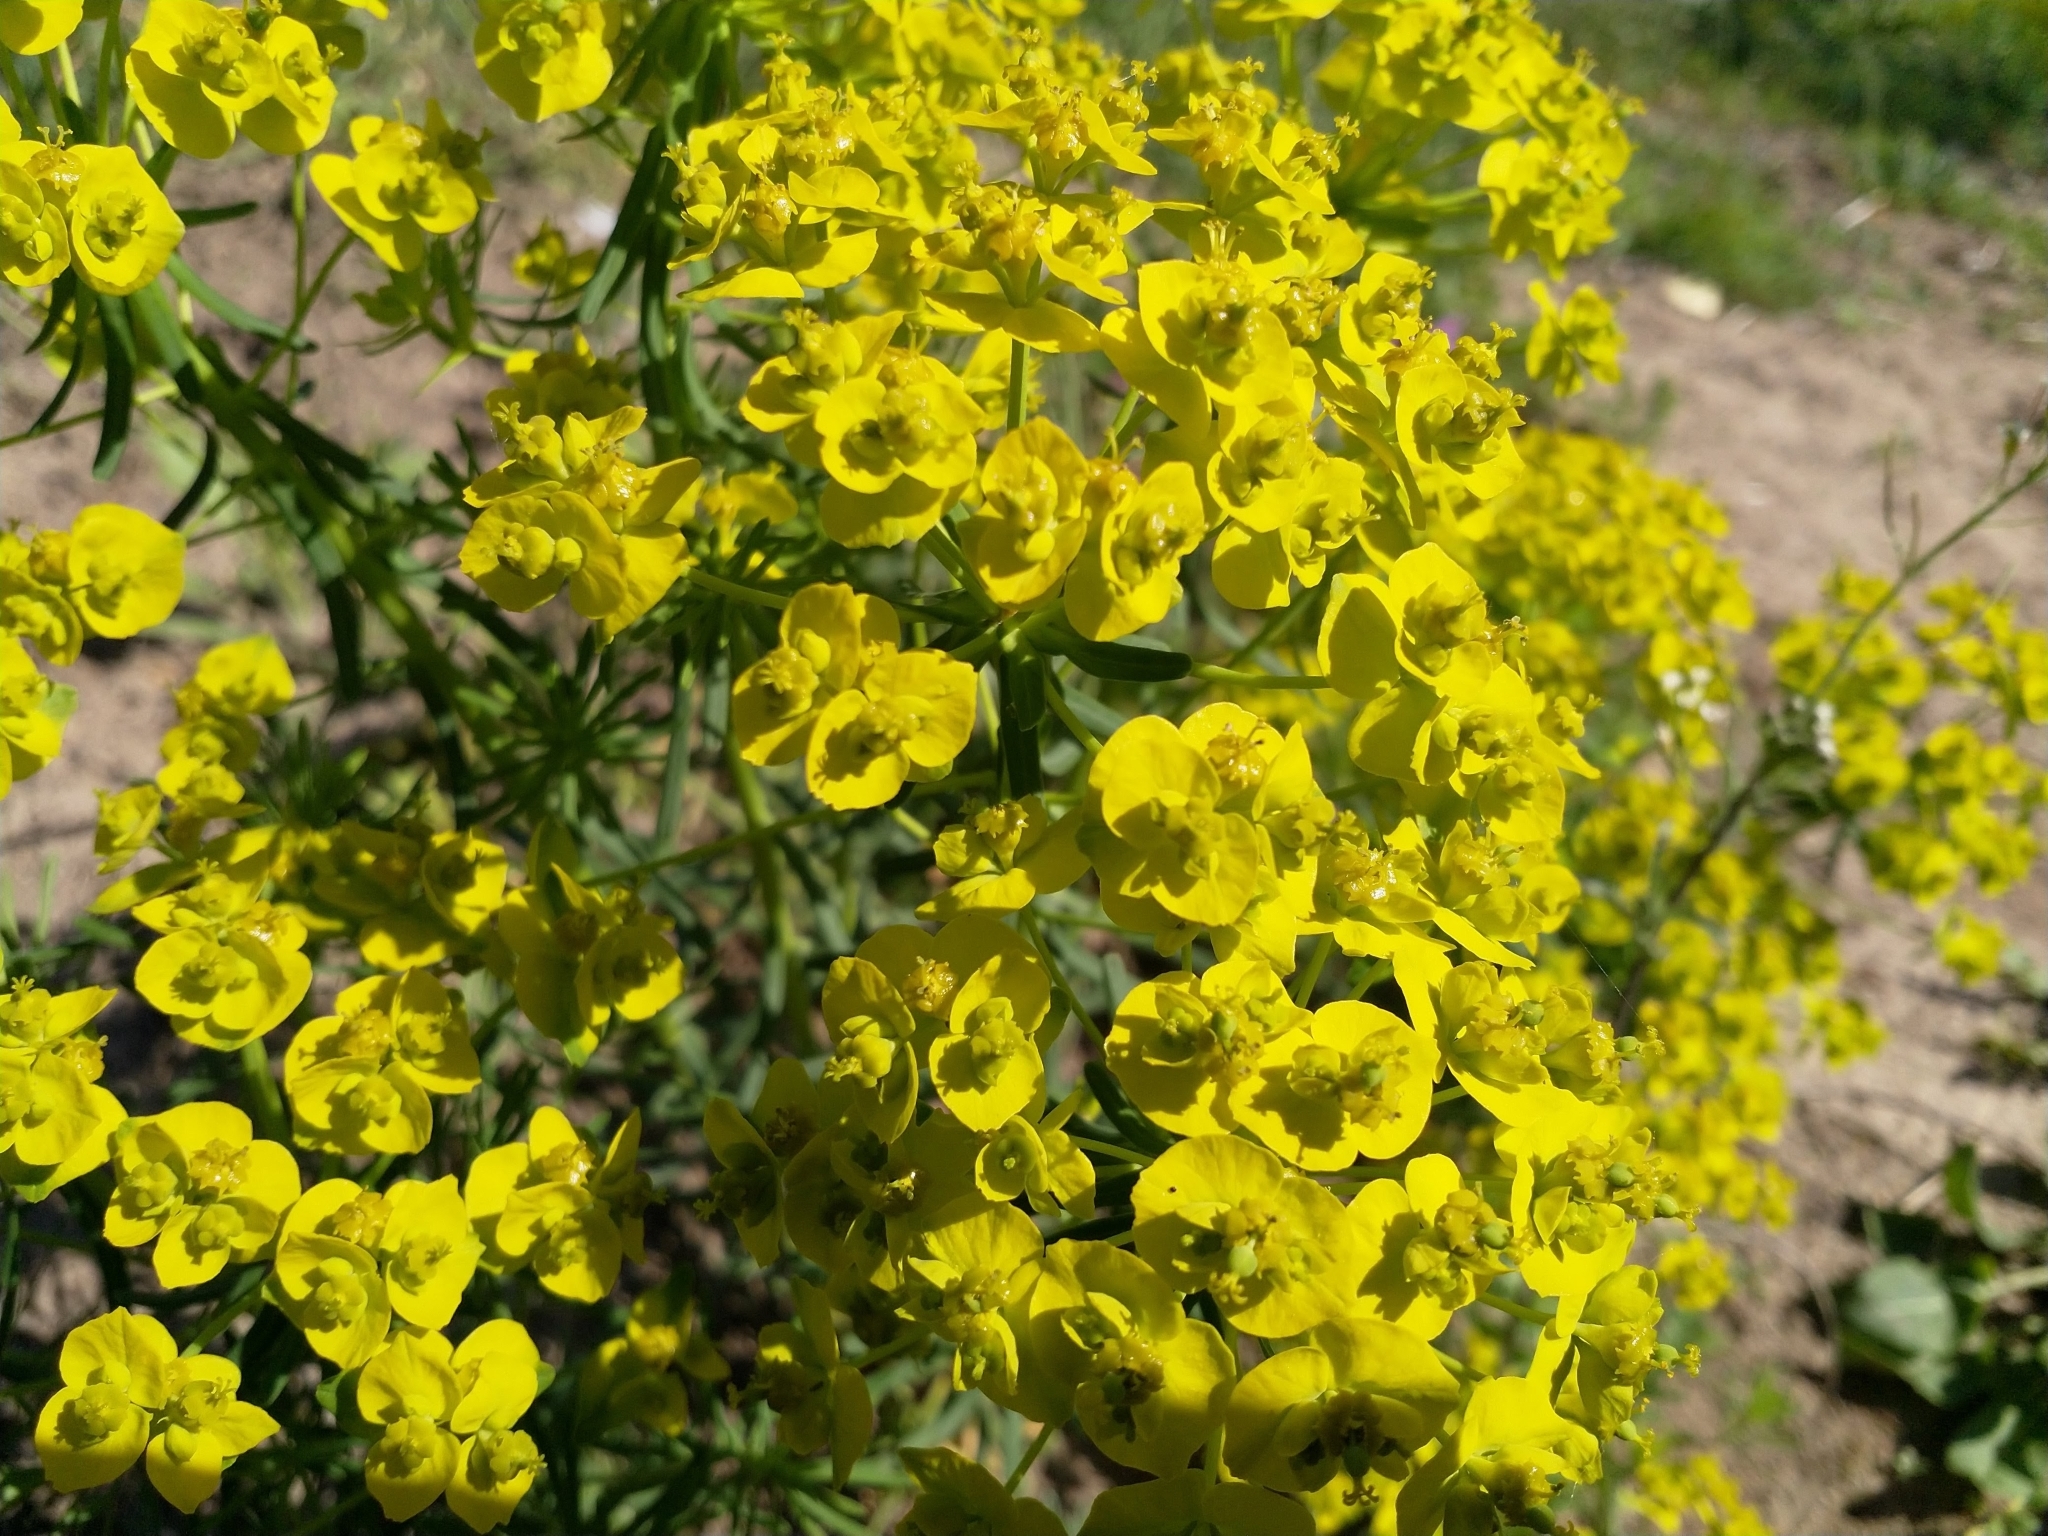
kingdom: Plantae
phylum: Tracheophyta
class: Magnoliopsida
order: Malpighiales
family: Euphorbiaceae
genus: Euphorbia
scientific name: Euphorbia cyparissias
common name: Cypress spurge
